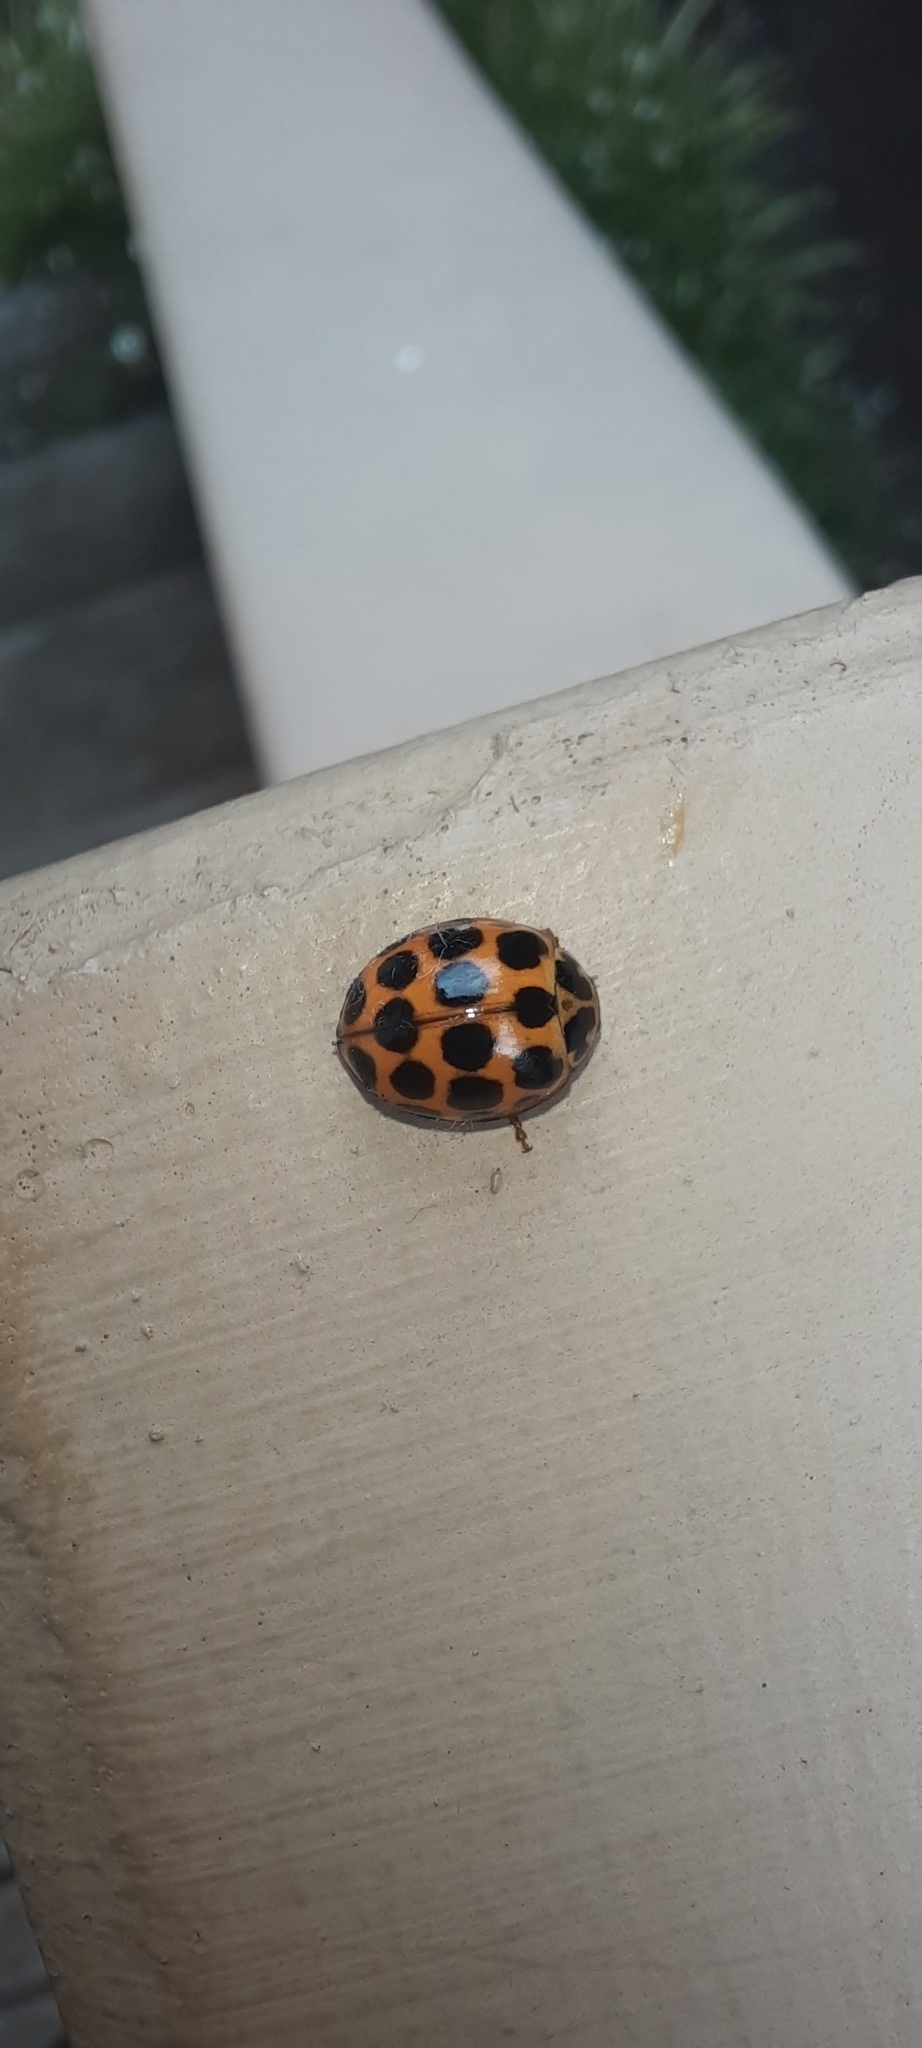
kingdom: Animalia
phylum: Arthropoda
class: Insecta
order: Coleoptera
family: Coccinellidae
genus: Harmonia
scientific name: Harmonia conformis
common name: Common spotted ladybird beetle
